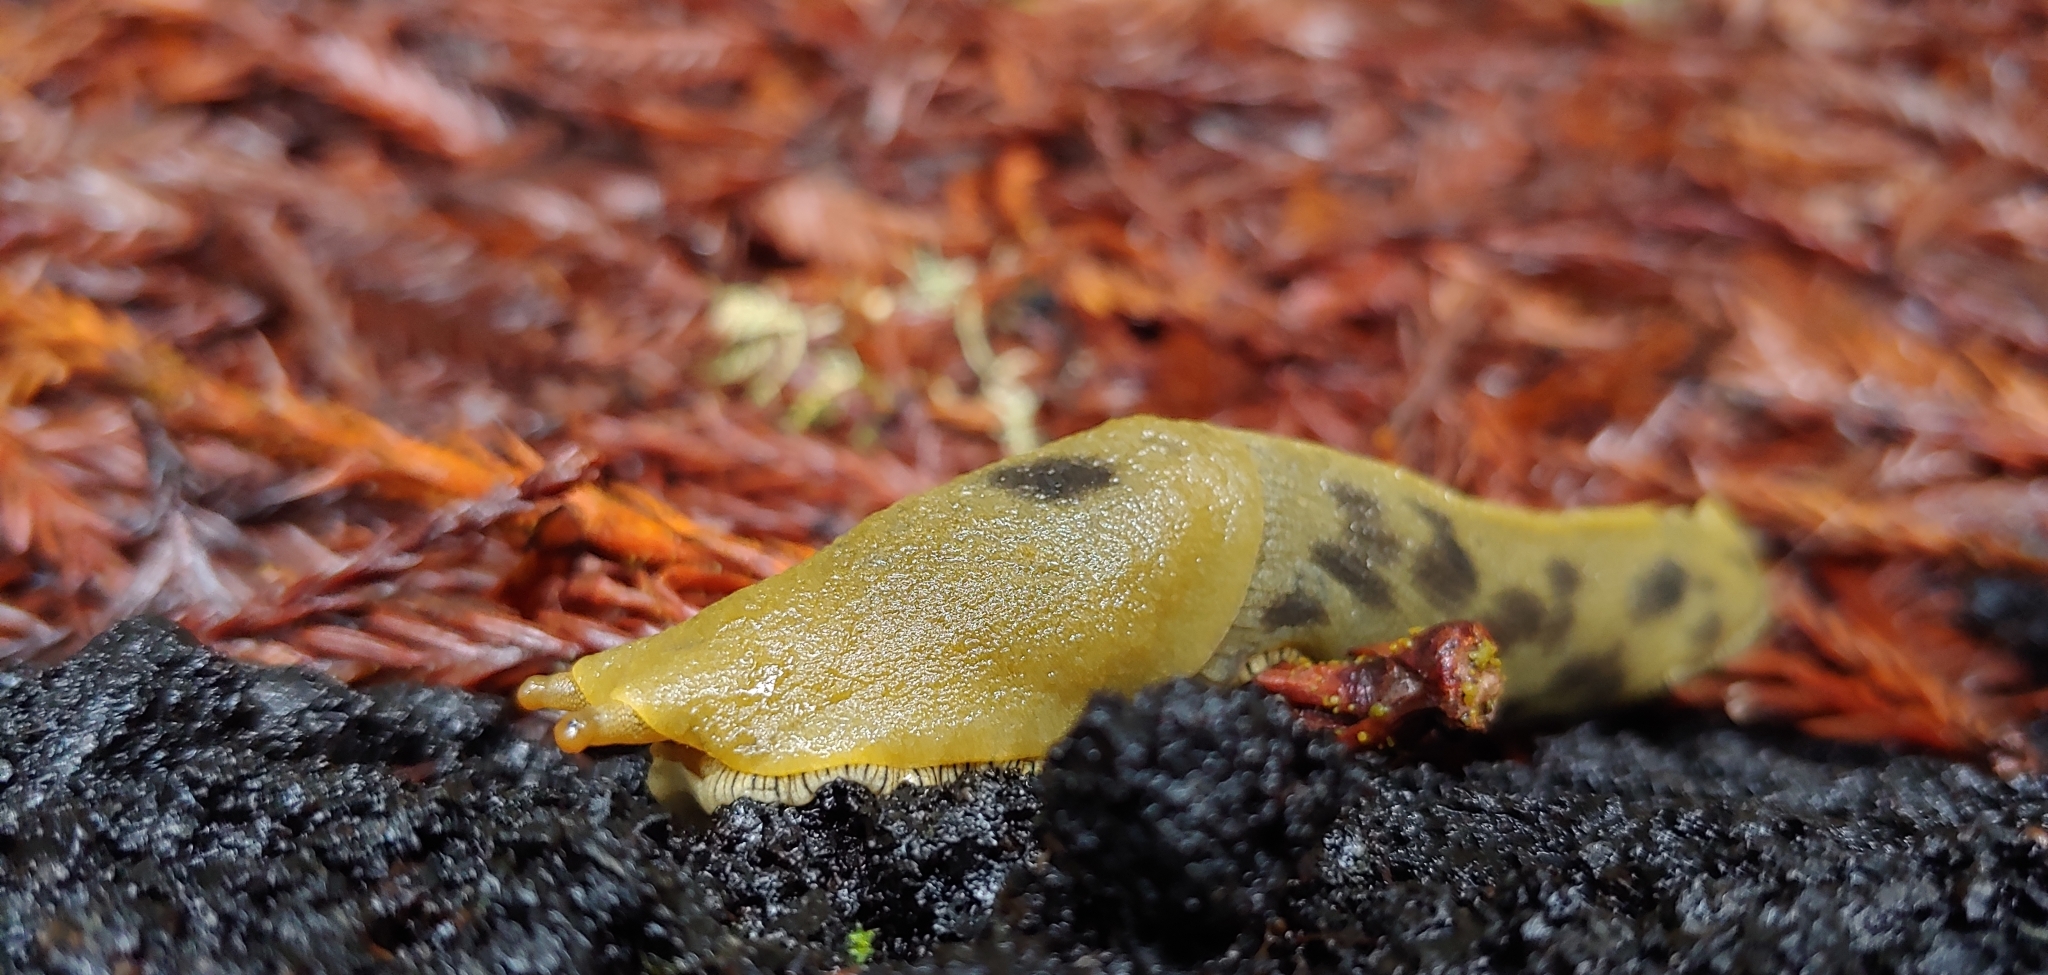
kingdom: Animalia
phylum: Mollusca
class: Gastropoda
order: Stylommatophora
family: Ariolimacidae
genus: Ariolimax
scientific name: Ariolimax columbianus
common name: Pacific banana slug
